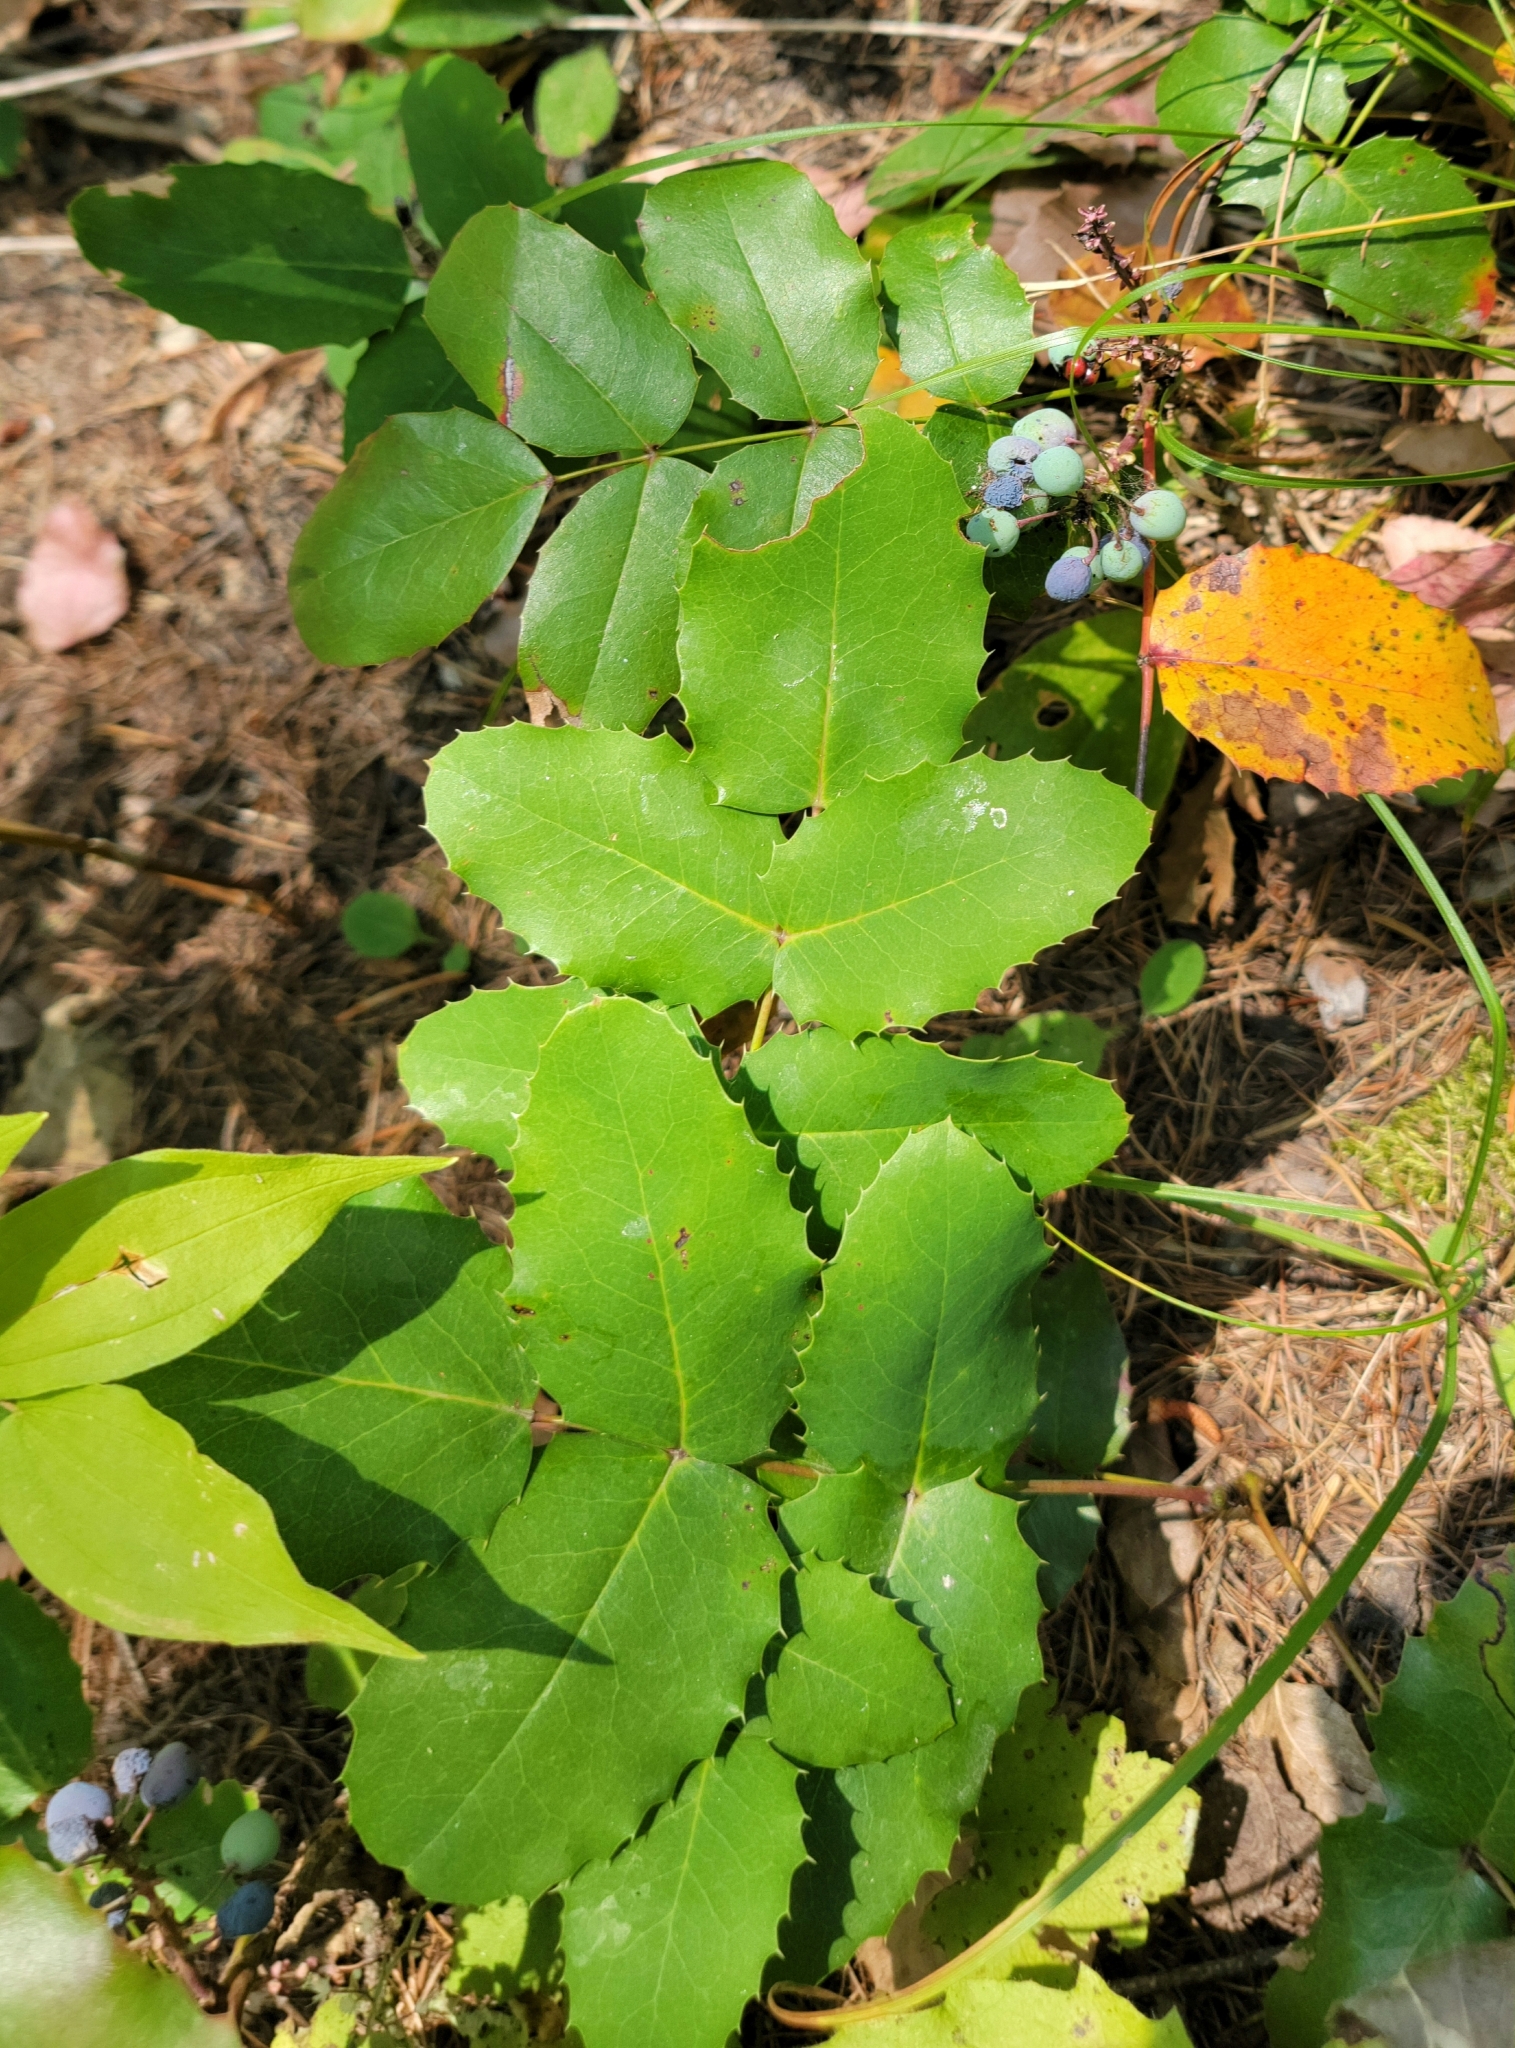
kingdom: Plantae
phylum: Tracheophyta
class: Magnoliopsida
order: Ranunculales
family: Berberidaceae
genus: Mahonia
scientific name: Mahonia repens
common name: Creeping oregon-grape
